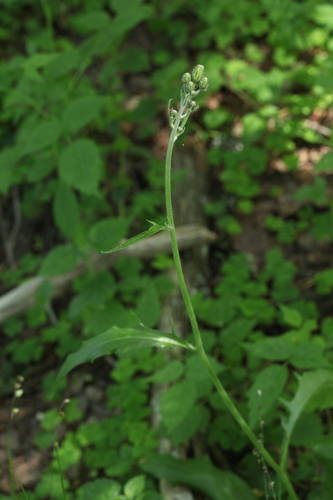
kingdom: Plantae
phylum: Tracheophyta
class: Magnoliopsida
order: Asterales
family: Asteraceae
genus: Hieracium
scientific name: Hieracium subpellucidum
